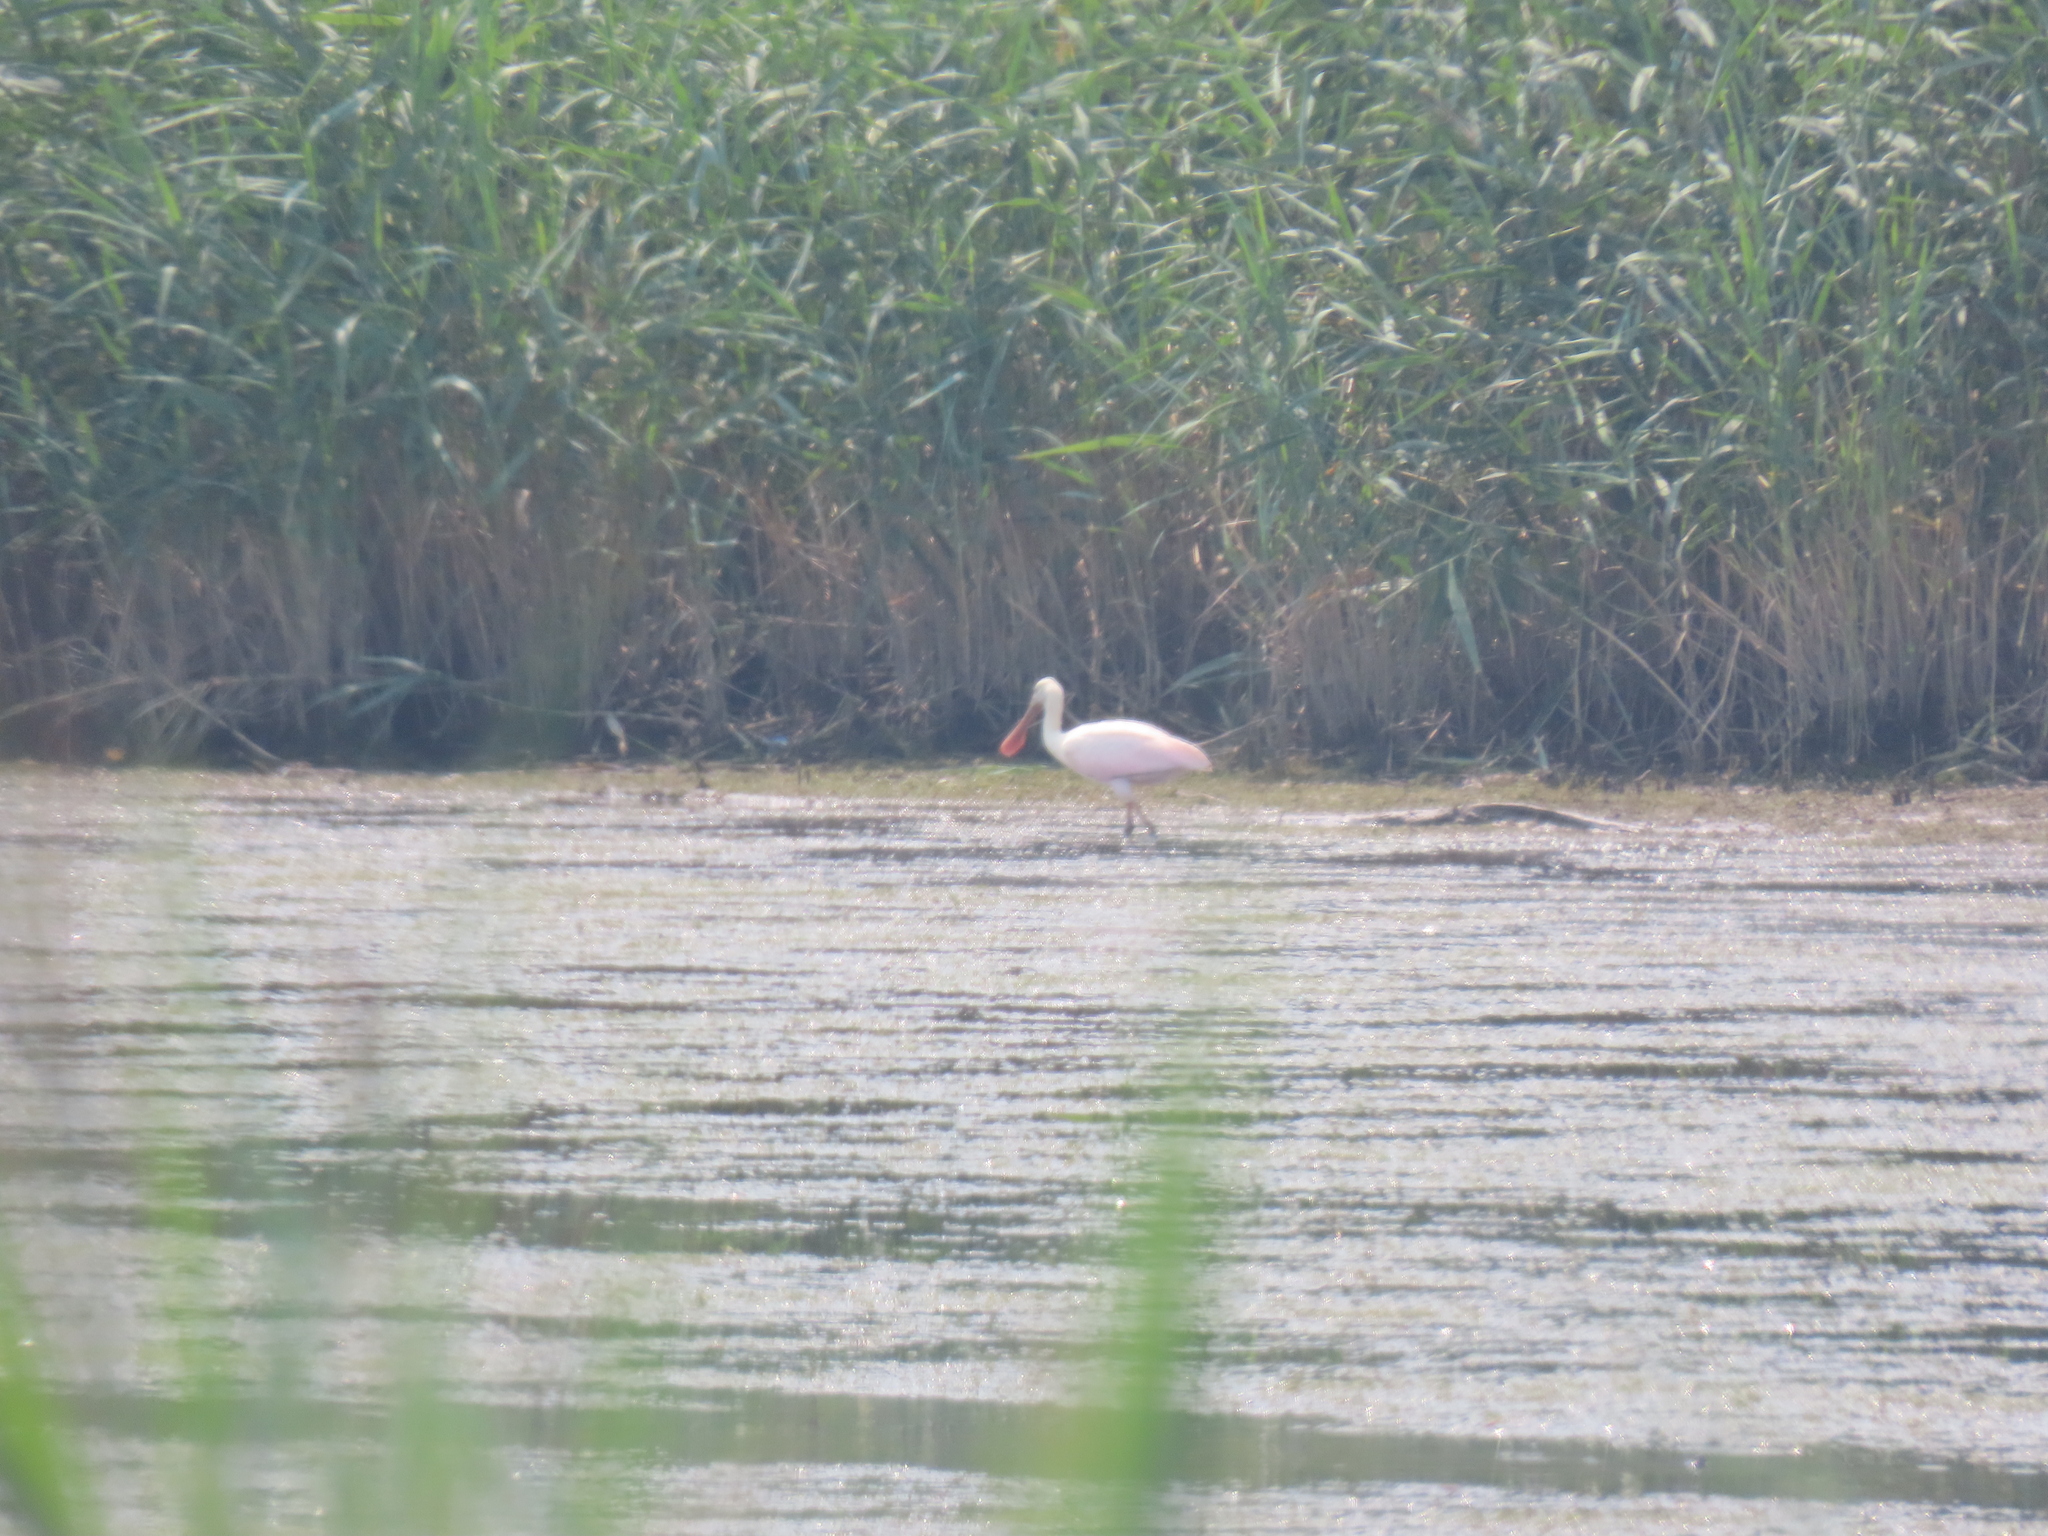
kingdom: Animalia
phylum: Chordata
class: Aves
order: Pelecaniformes
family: Threskiornithidae
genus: Platalea
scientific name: Platalea ajaja
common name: Roseate spoonbill
